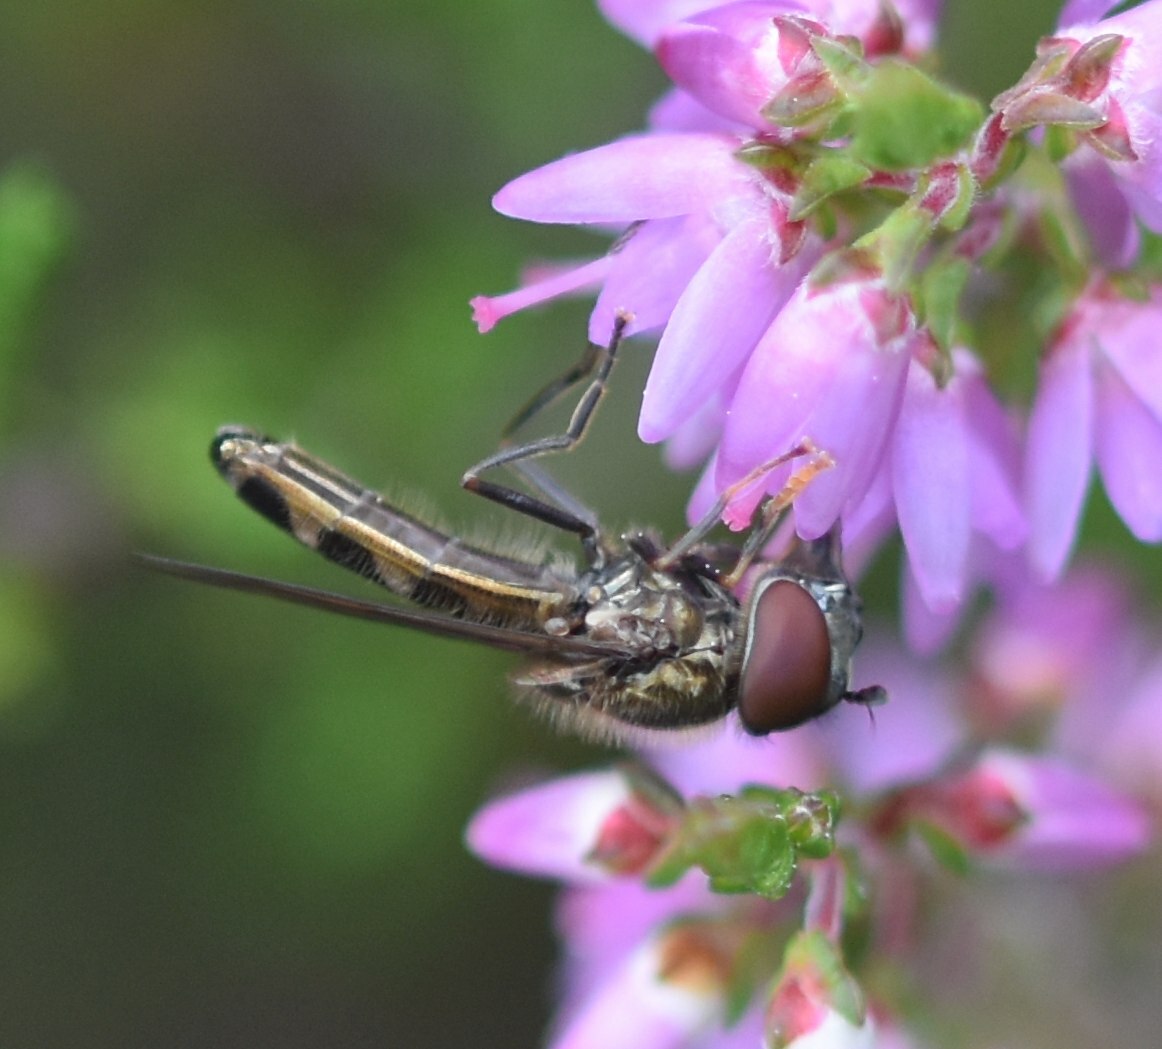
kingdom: Animalia
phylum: Arthropoda
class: Insecta
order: Diptera
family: Syrphidae
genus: Platycheirus
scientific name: Platycheirus albimanus
